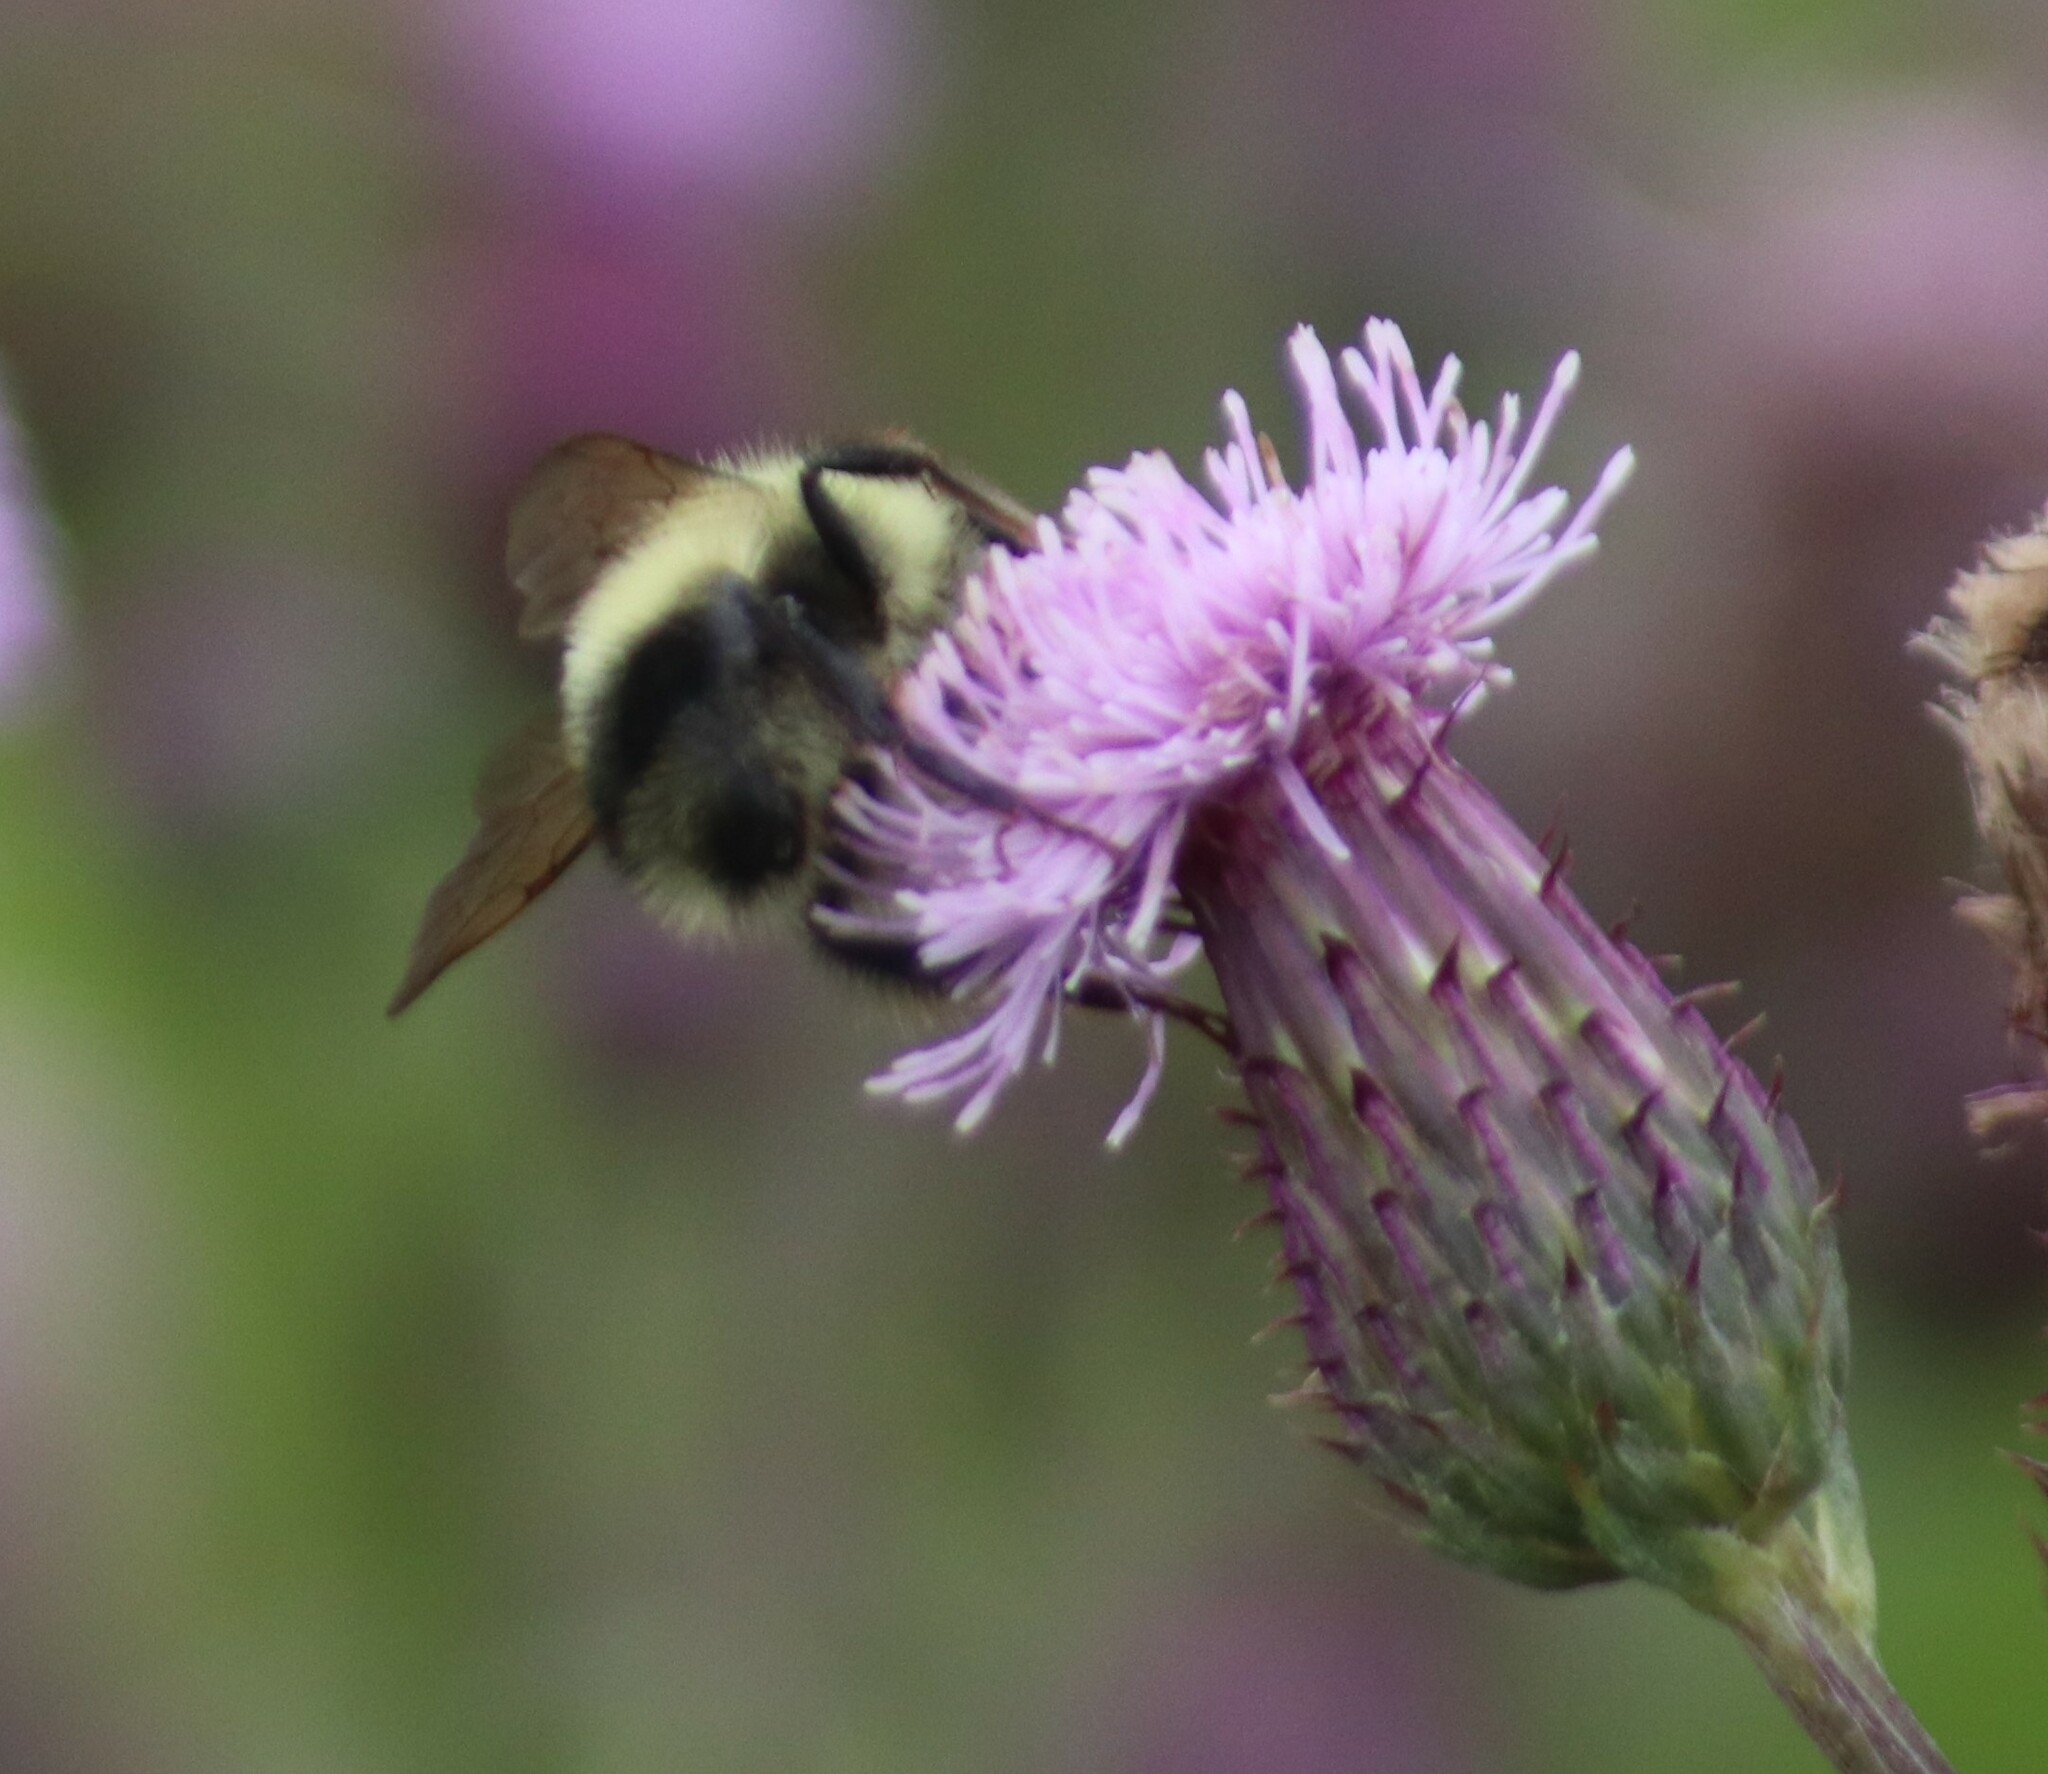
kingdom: Animalia
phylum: Arthropoda
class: Insecta
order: Hymenoptera
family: Apidae
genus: Pyrobombus
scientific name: Pyrobombus
